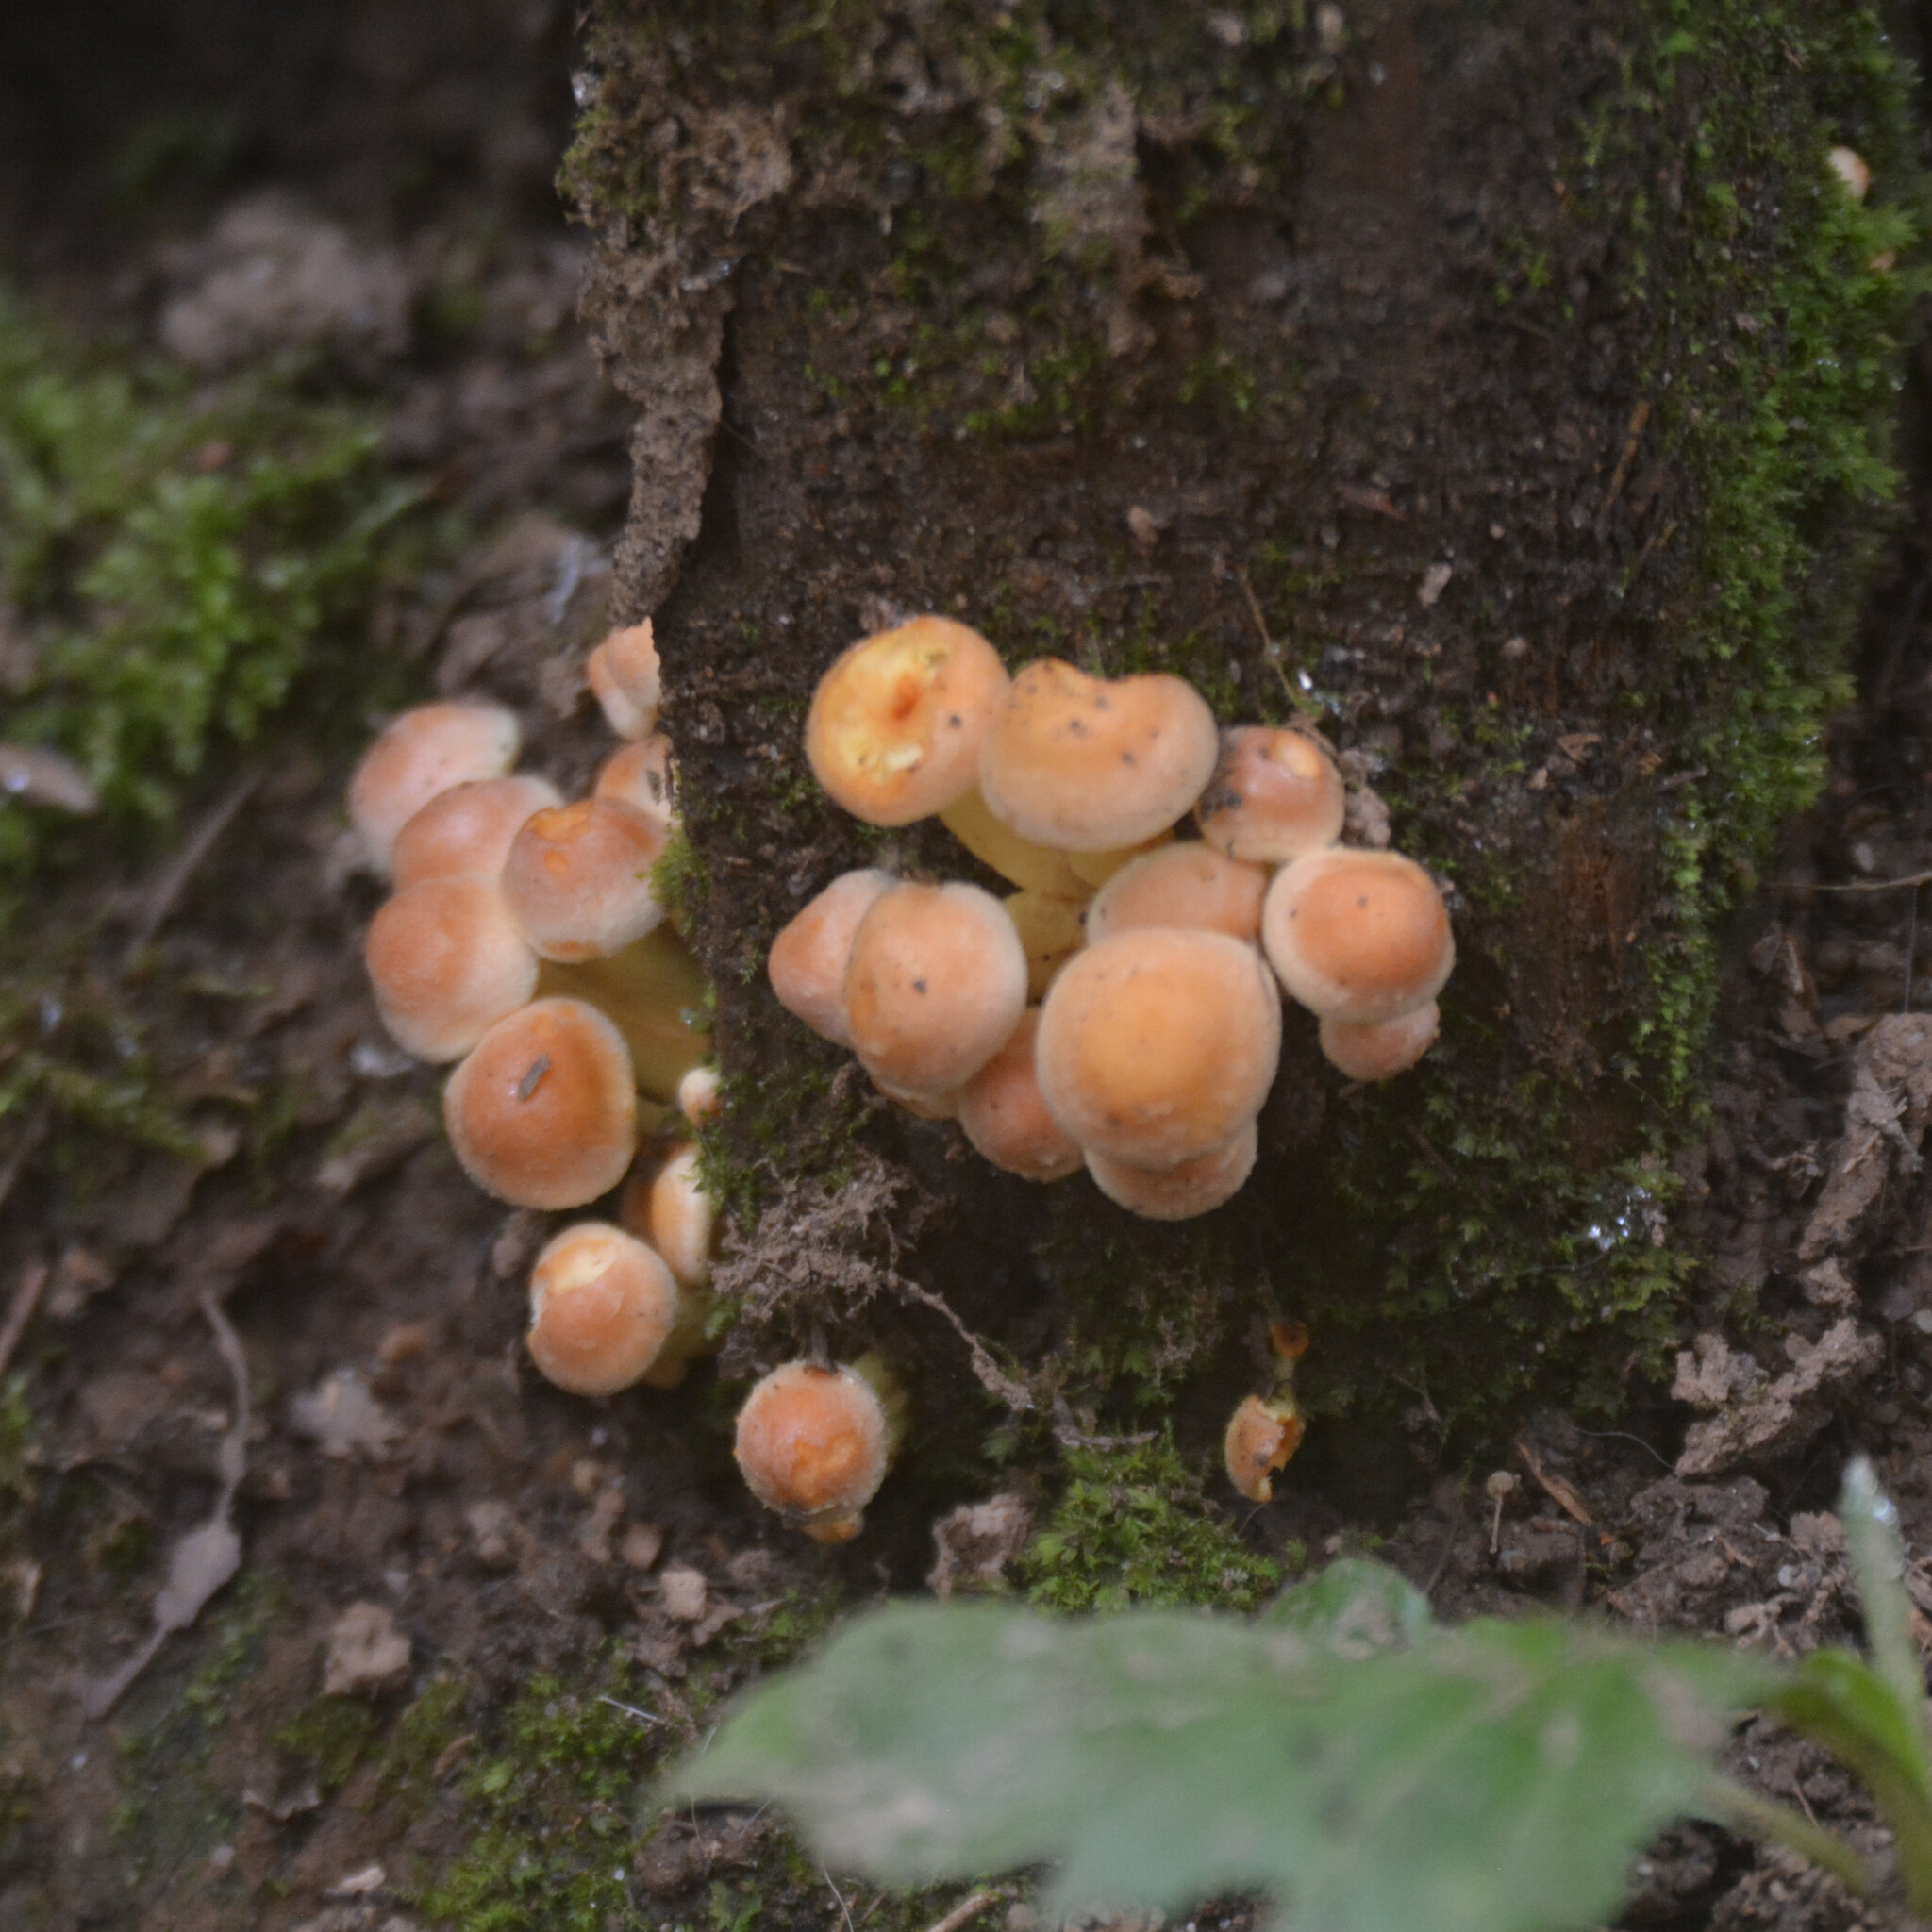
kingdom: Fungi
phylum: Basidiomycota
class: Agaricomycetes
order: Agaricales
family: Strophariaceae
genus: Hypholoma
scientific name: Hypholoma fasciculare
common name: Sulphur tuft
